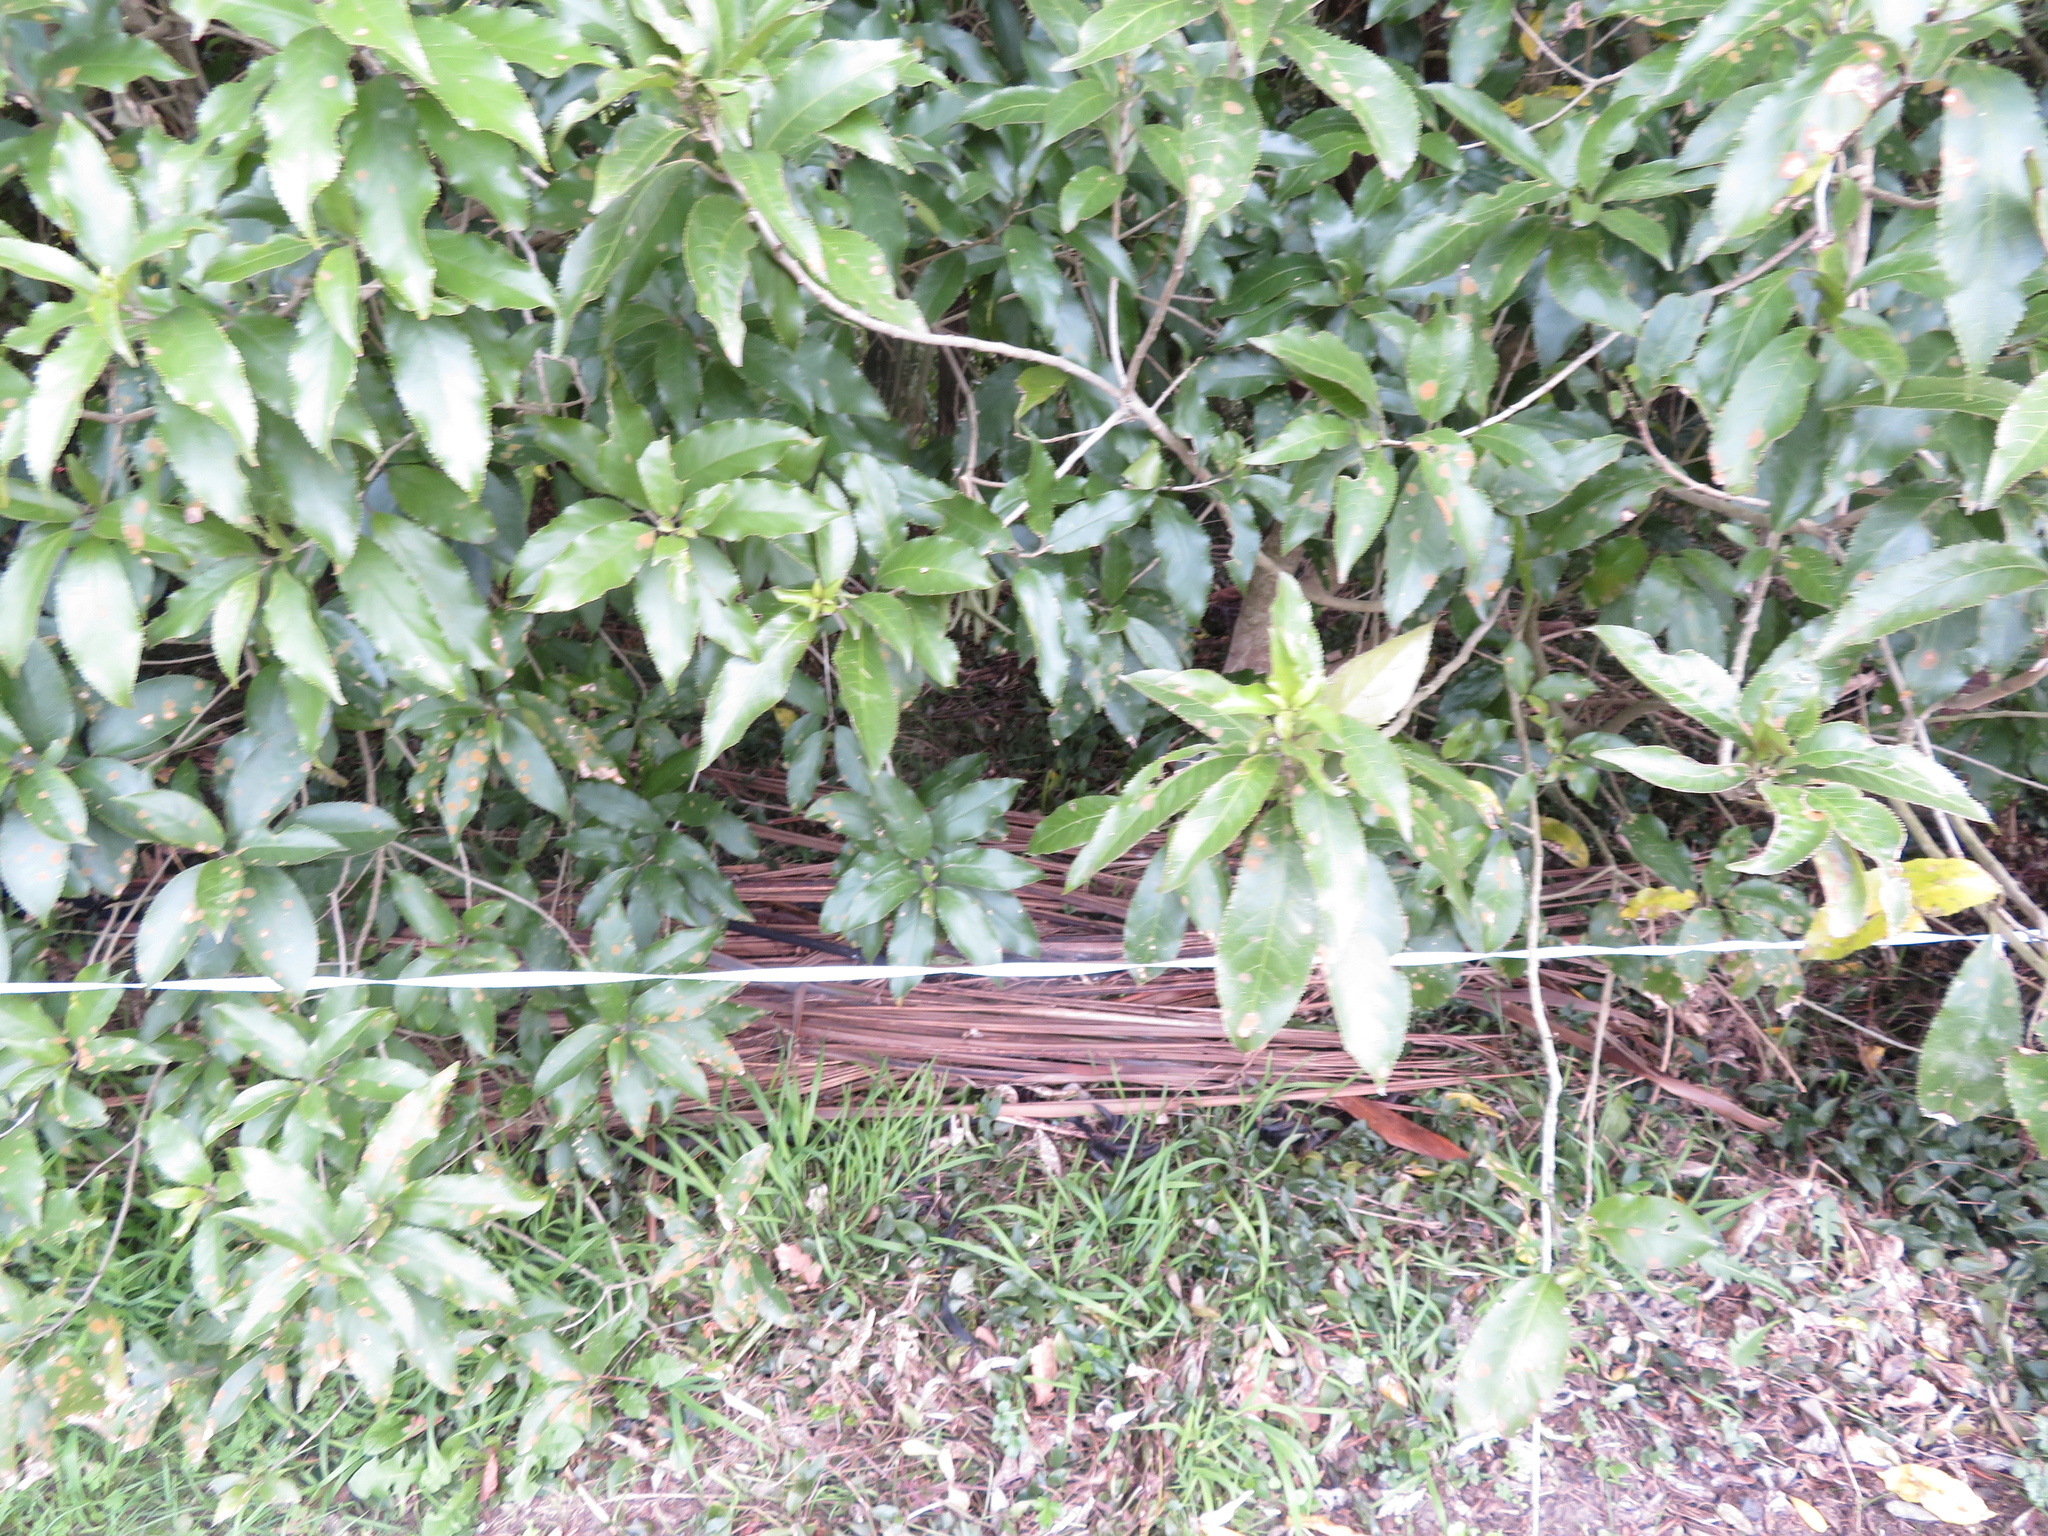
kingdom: Plantae
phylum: Tracheophyta
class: Magnoliopsida
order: Malpighiales
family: Violaceae
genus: Melicytus
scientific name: Melicytus ramiflorus
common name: Mahoe
